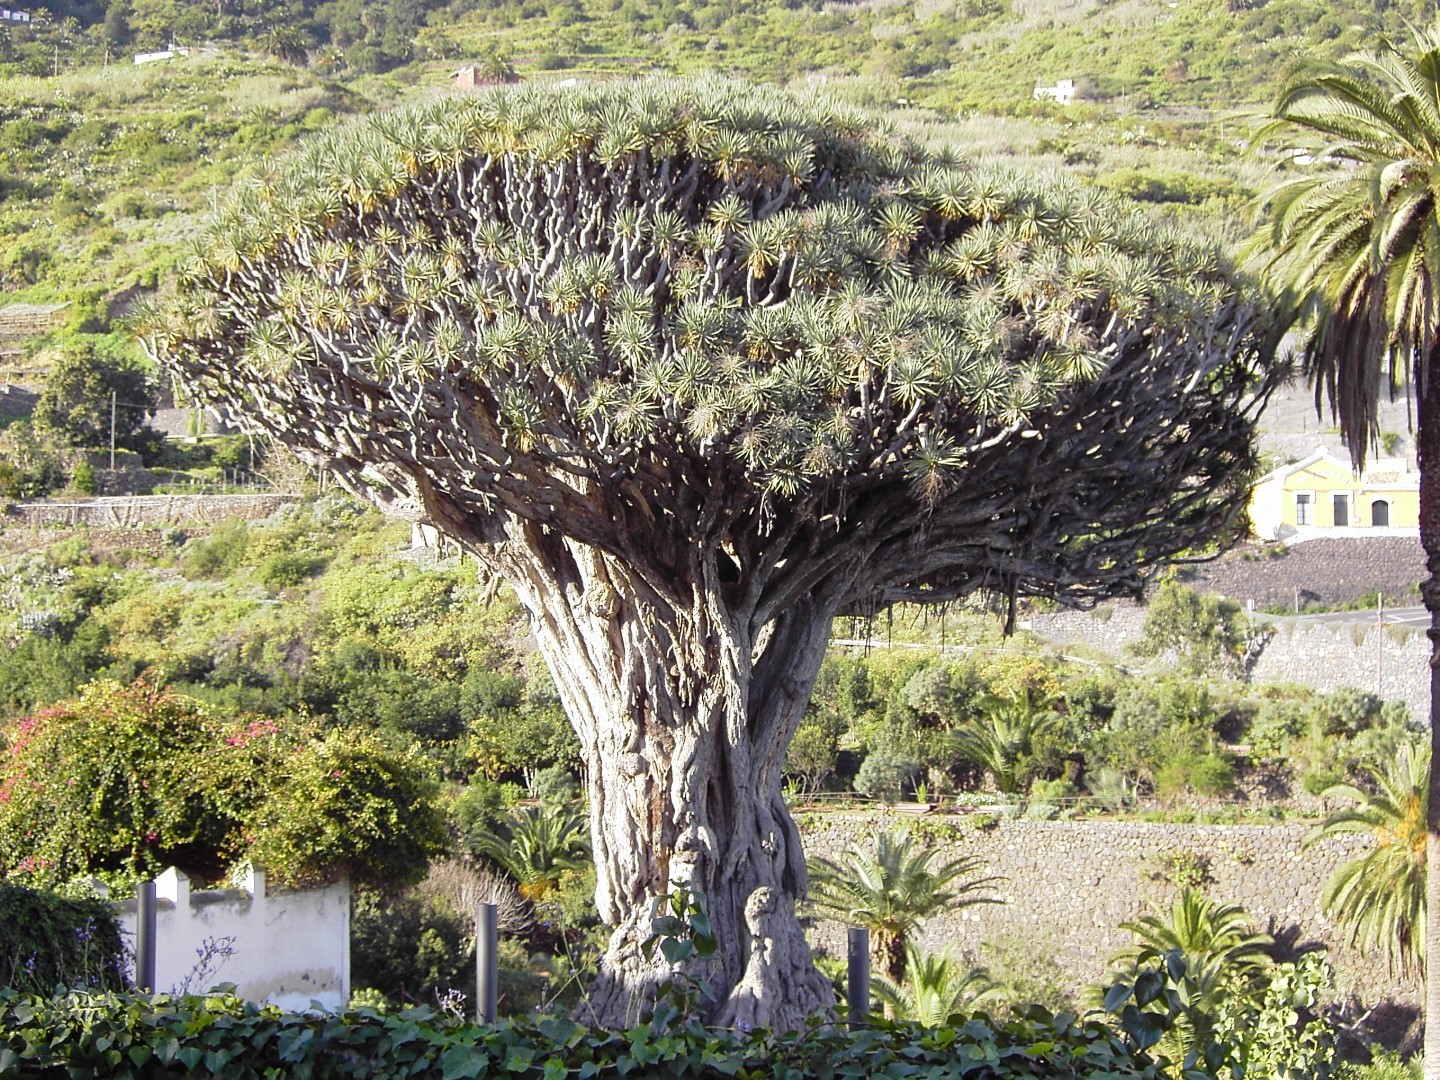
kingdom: Plantae
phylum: Tracheophyta
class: Liliopsida
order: Asparagales
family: Asparagaceae
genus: Dracaena
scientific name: Dracaena draco
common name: Canary island dragon tree
